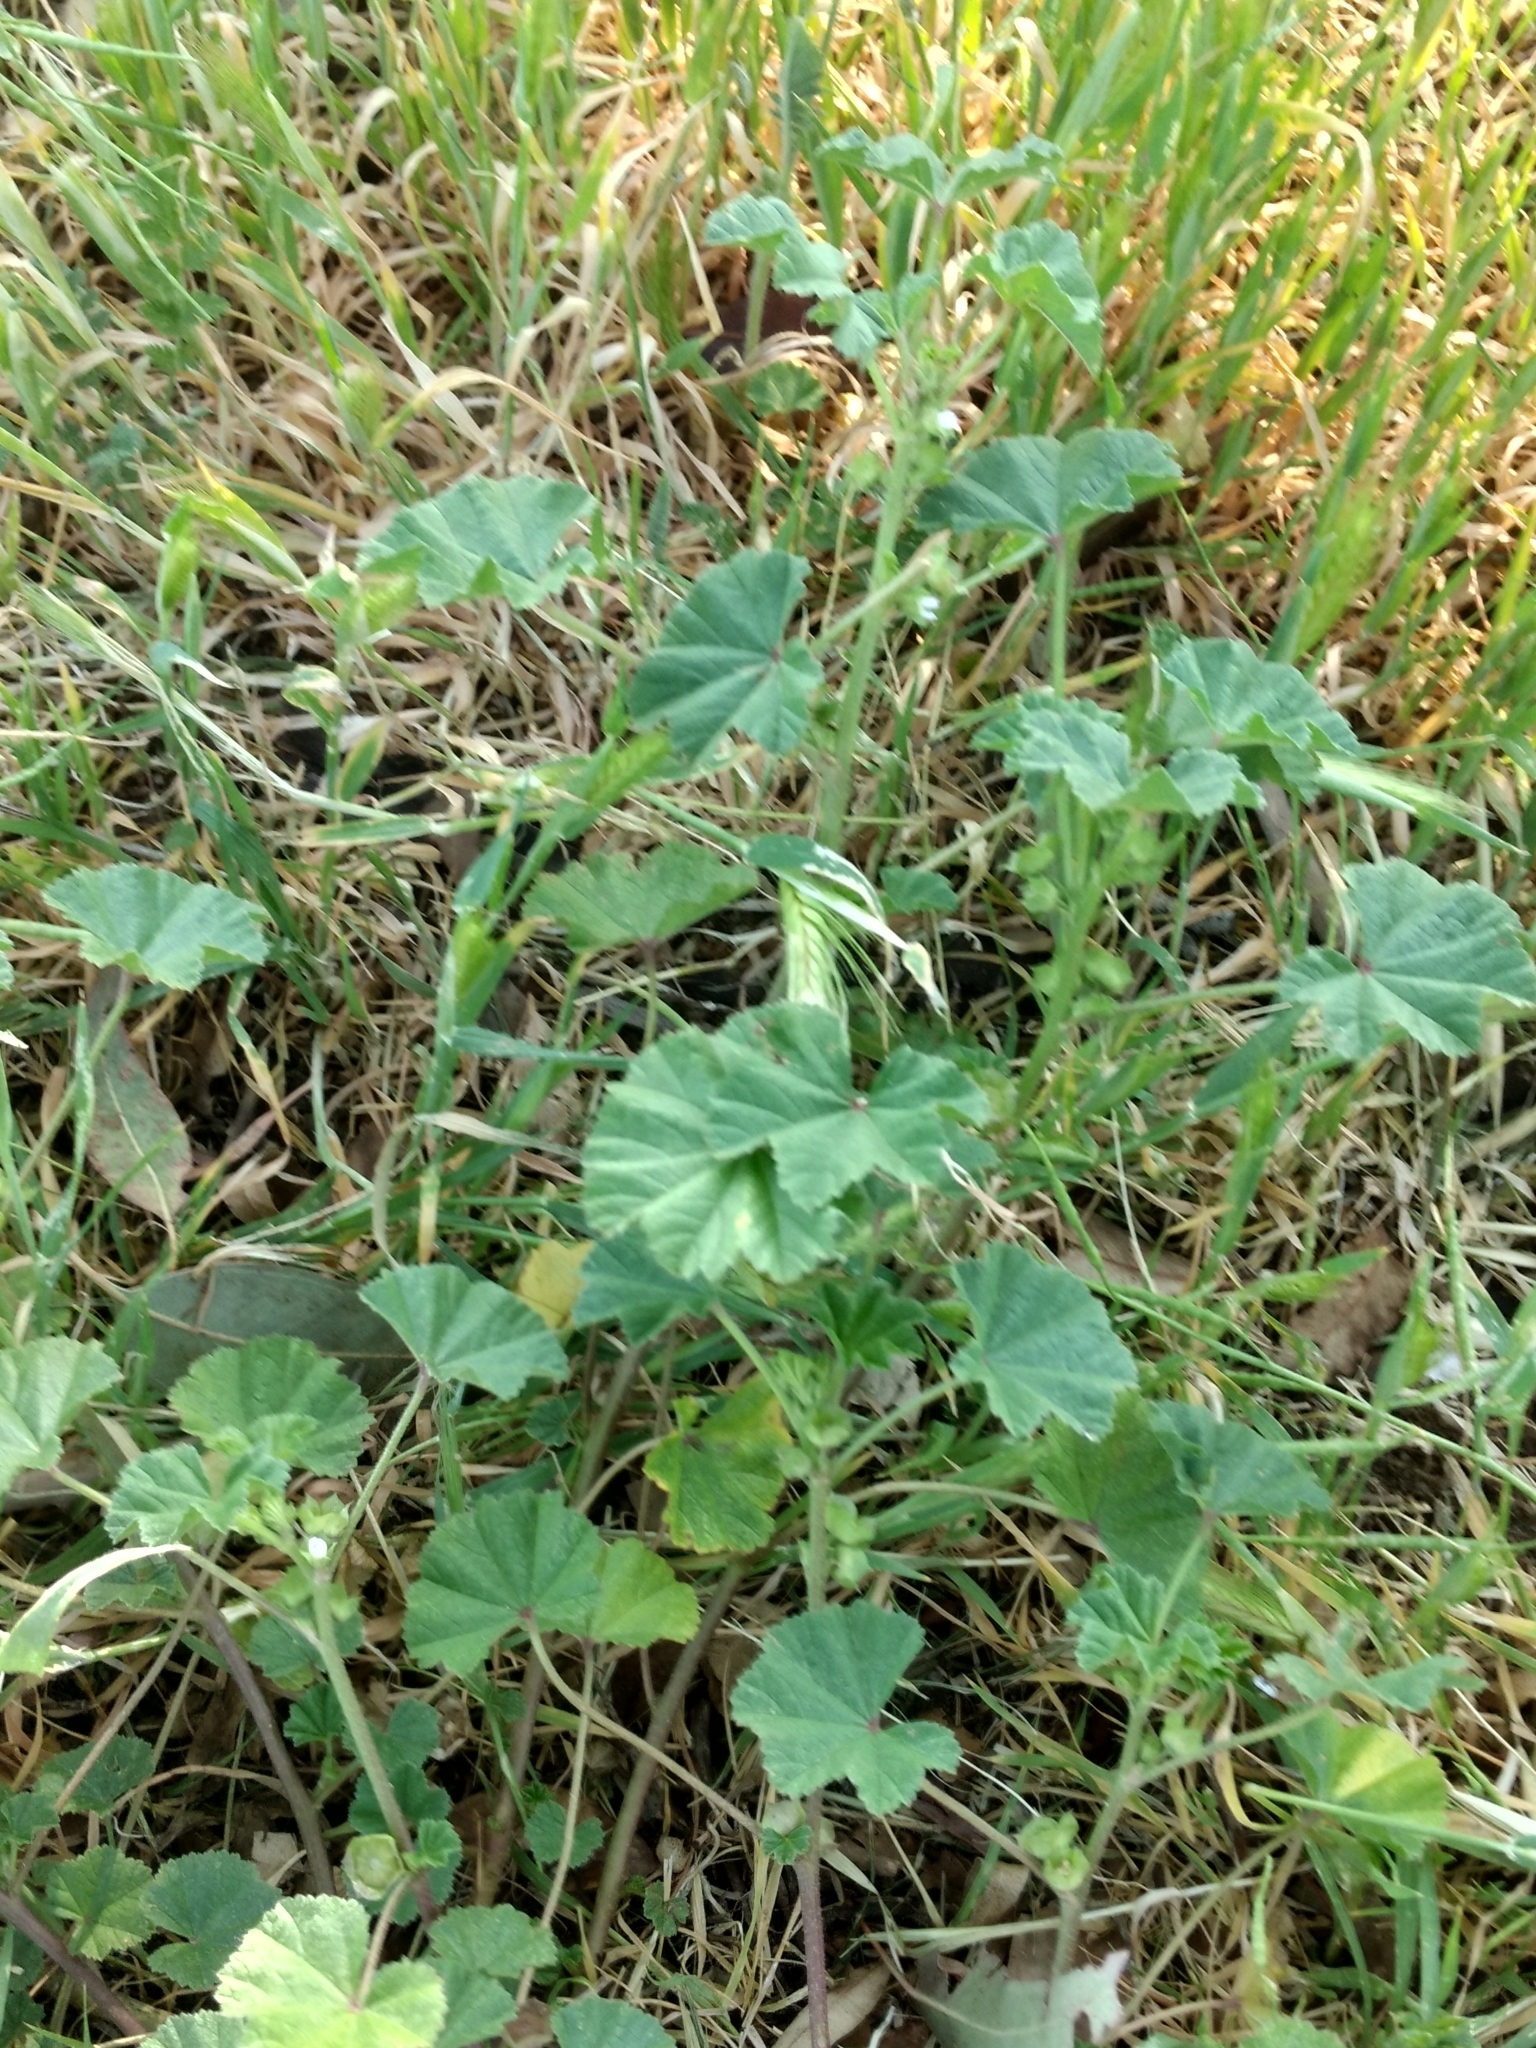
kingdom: Plantae
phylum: Tracheophyta
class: Magnoliopsida
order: Malvales
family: Malvaceae
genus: Malva
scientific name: Malva parviflora
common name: Least mallow
